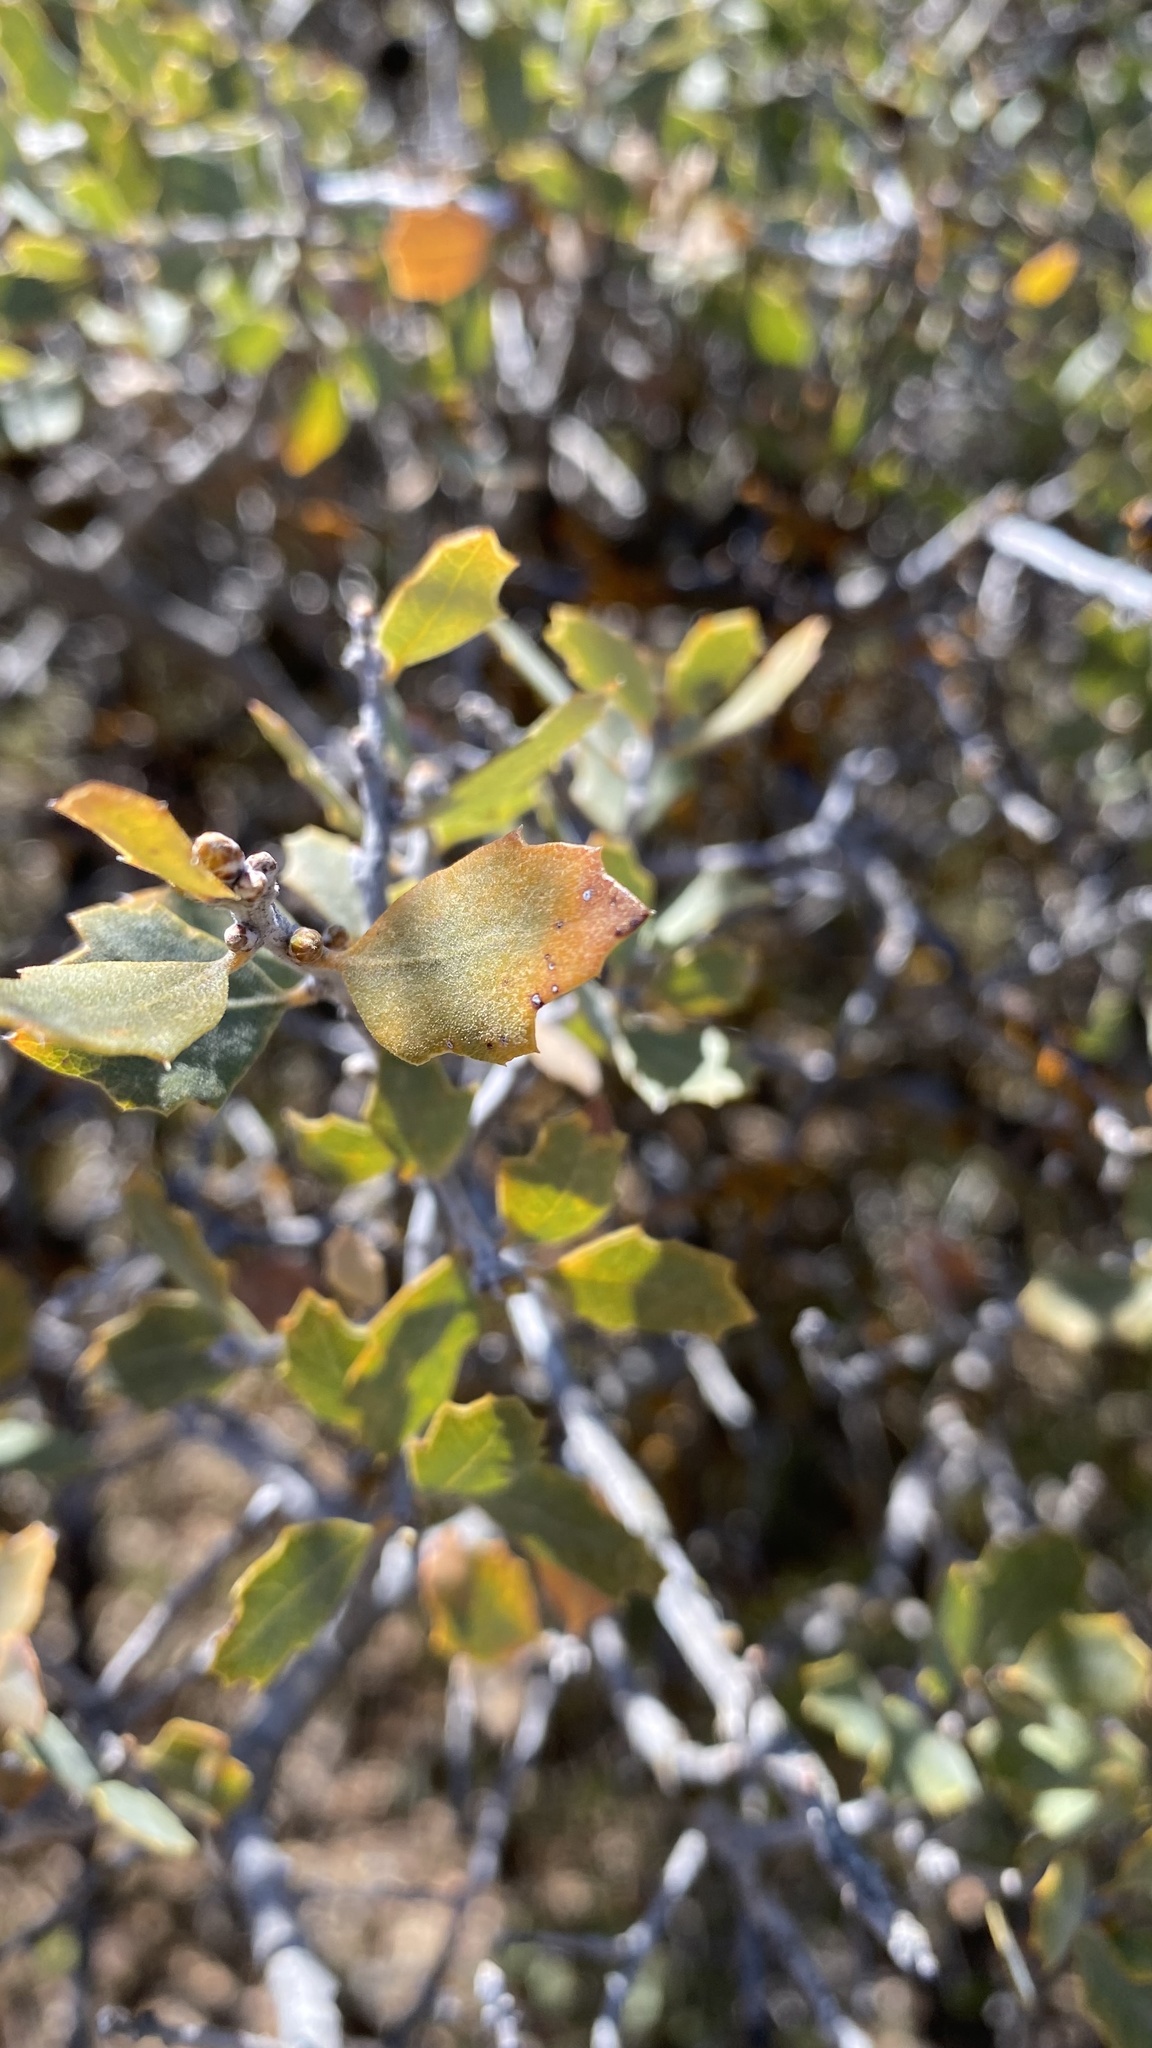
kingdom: Plantae
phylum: Tracheophyta
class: Magnoliopsida
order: Fagales
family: Fagaceae
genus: Quercus
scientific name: Quercus john-tuckeri
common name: Tucker's oak
